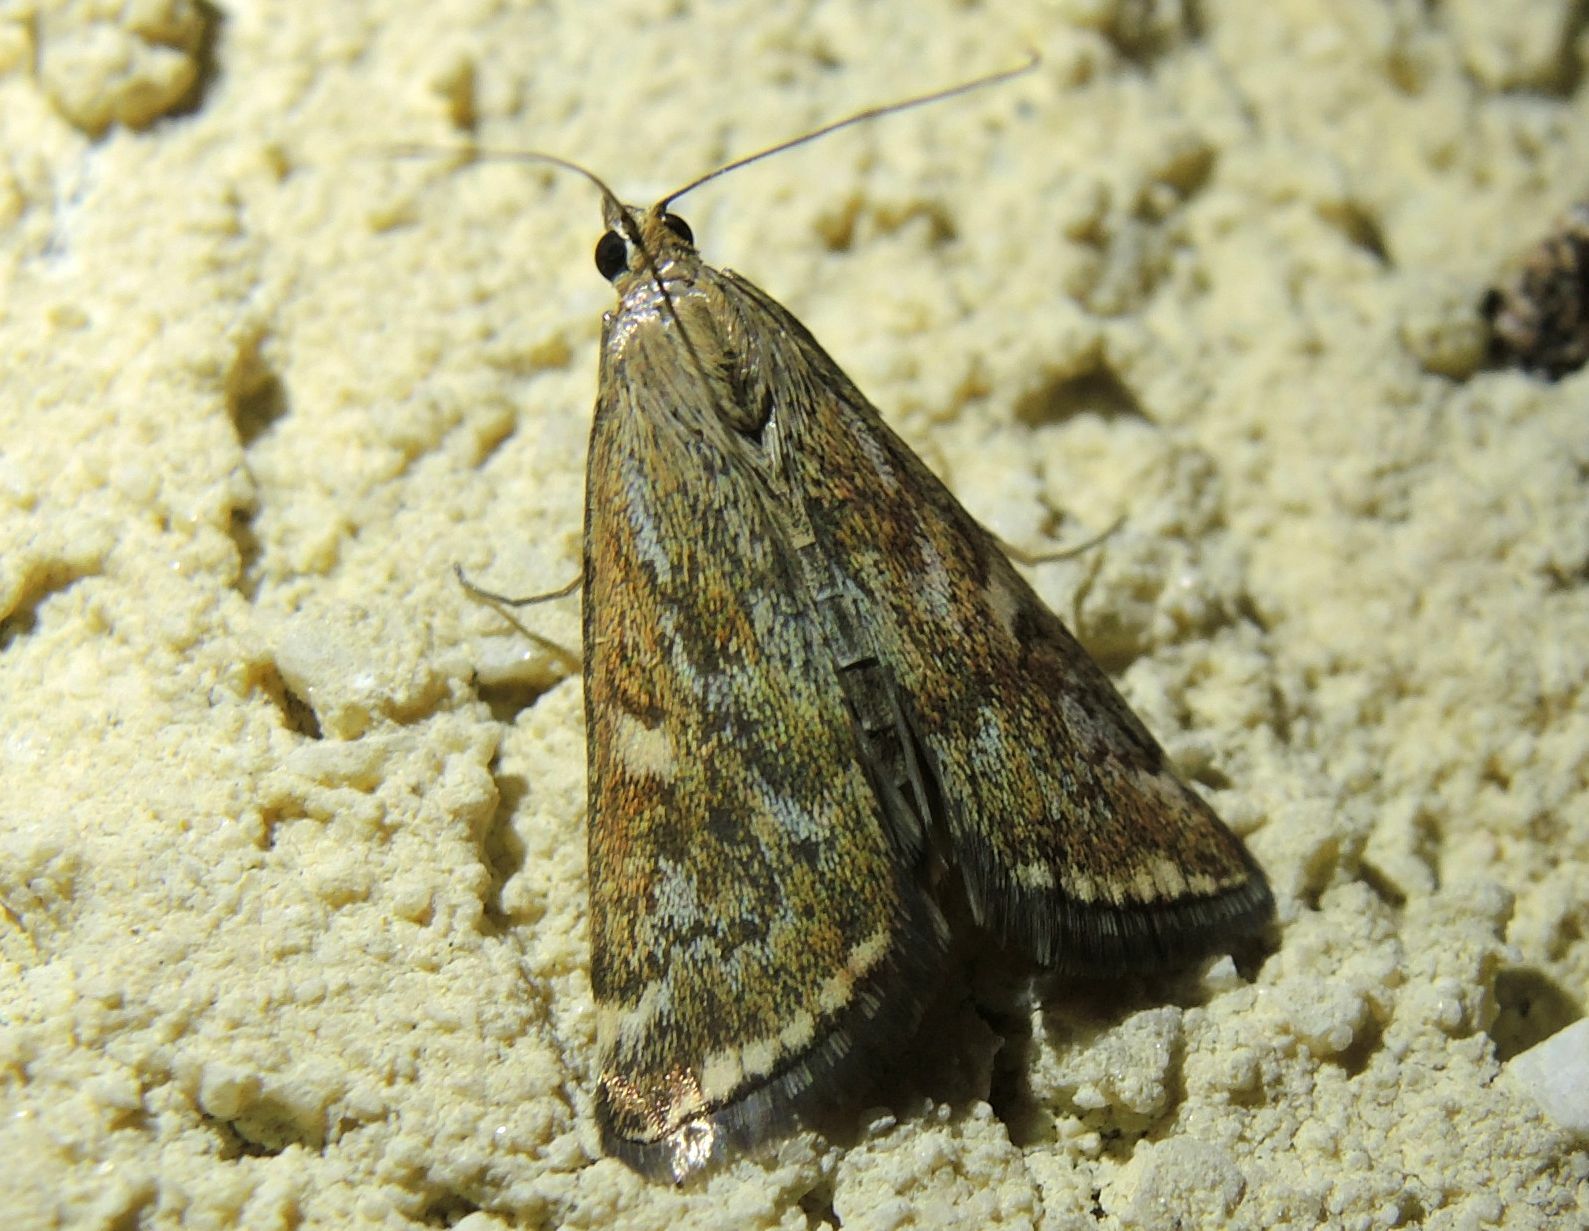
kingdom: Animalia
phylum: Arthropoda
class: Insecta
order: Lepidoptera
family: Crambidae
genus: Loxostege
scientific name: Loxostege sticticalis
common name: Crambid moth
